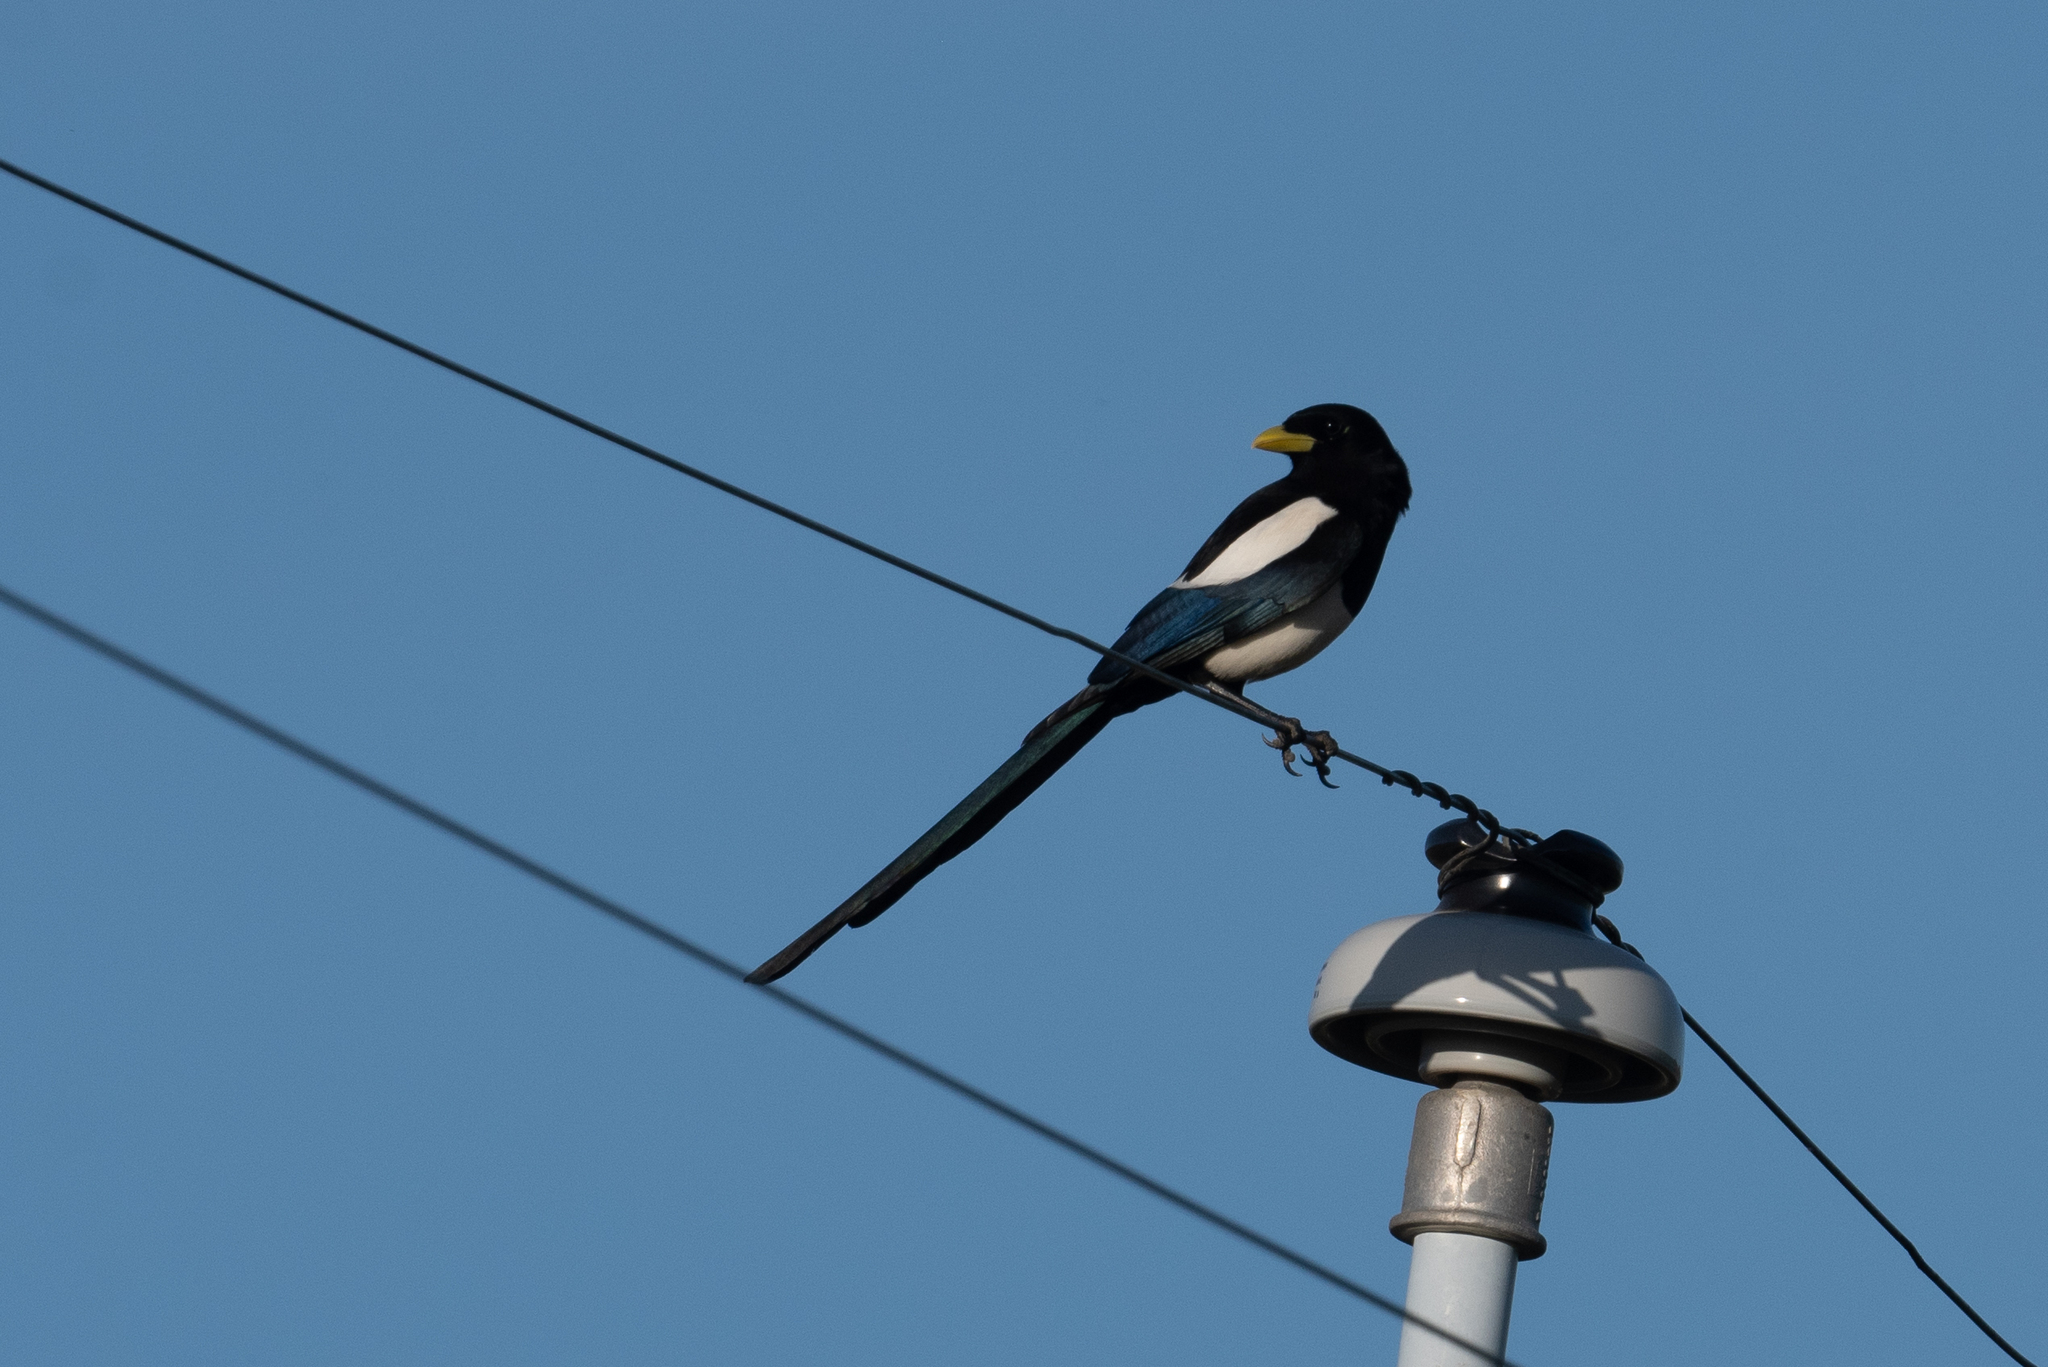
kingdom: Animalia
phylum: Chordata
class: Aves
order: Passeriformes
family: Corvidae
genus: Pica
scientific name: Pica nuttalli
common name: Yellow-billed magpie
